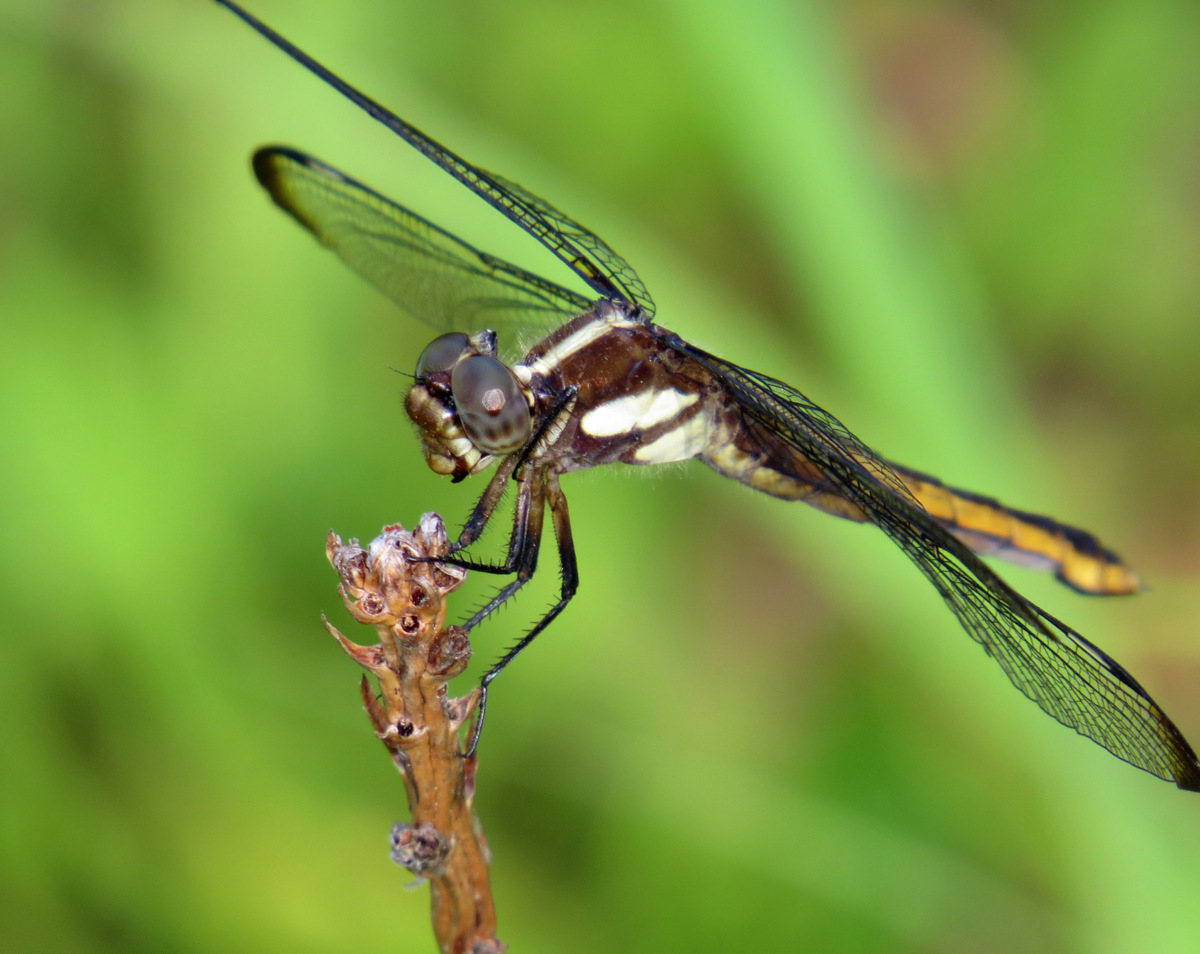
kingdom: Animalia
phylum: Arthropoda
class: Insecta
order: Odonata
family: Libellulidae
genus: Libellula
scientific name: Libellula cyanea
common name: Spangled skimmer
